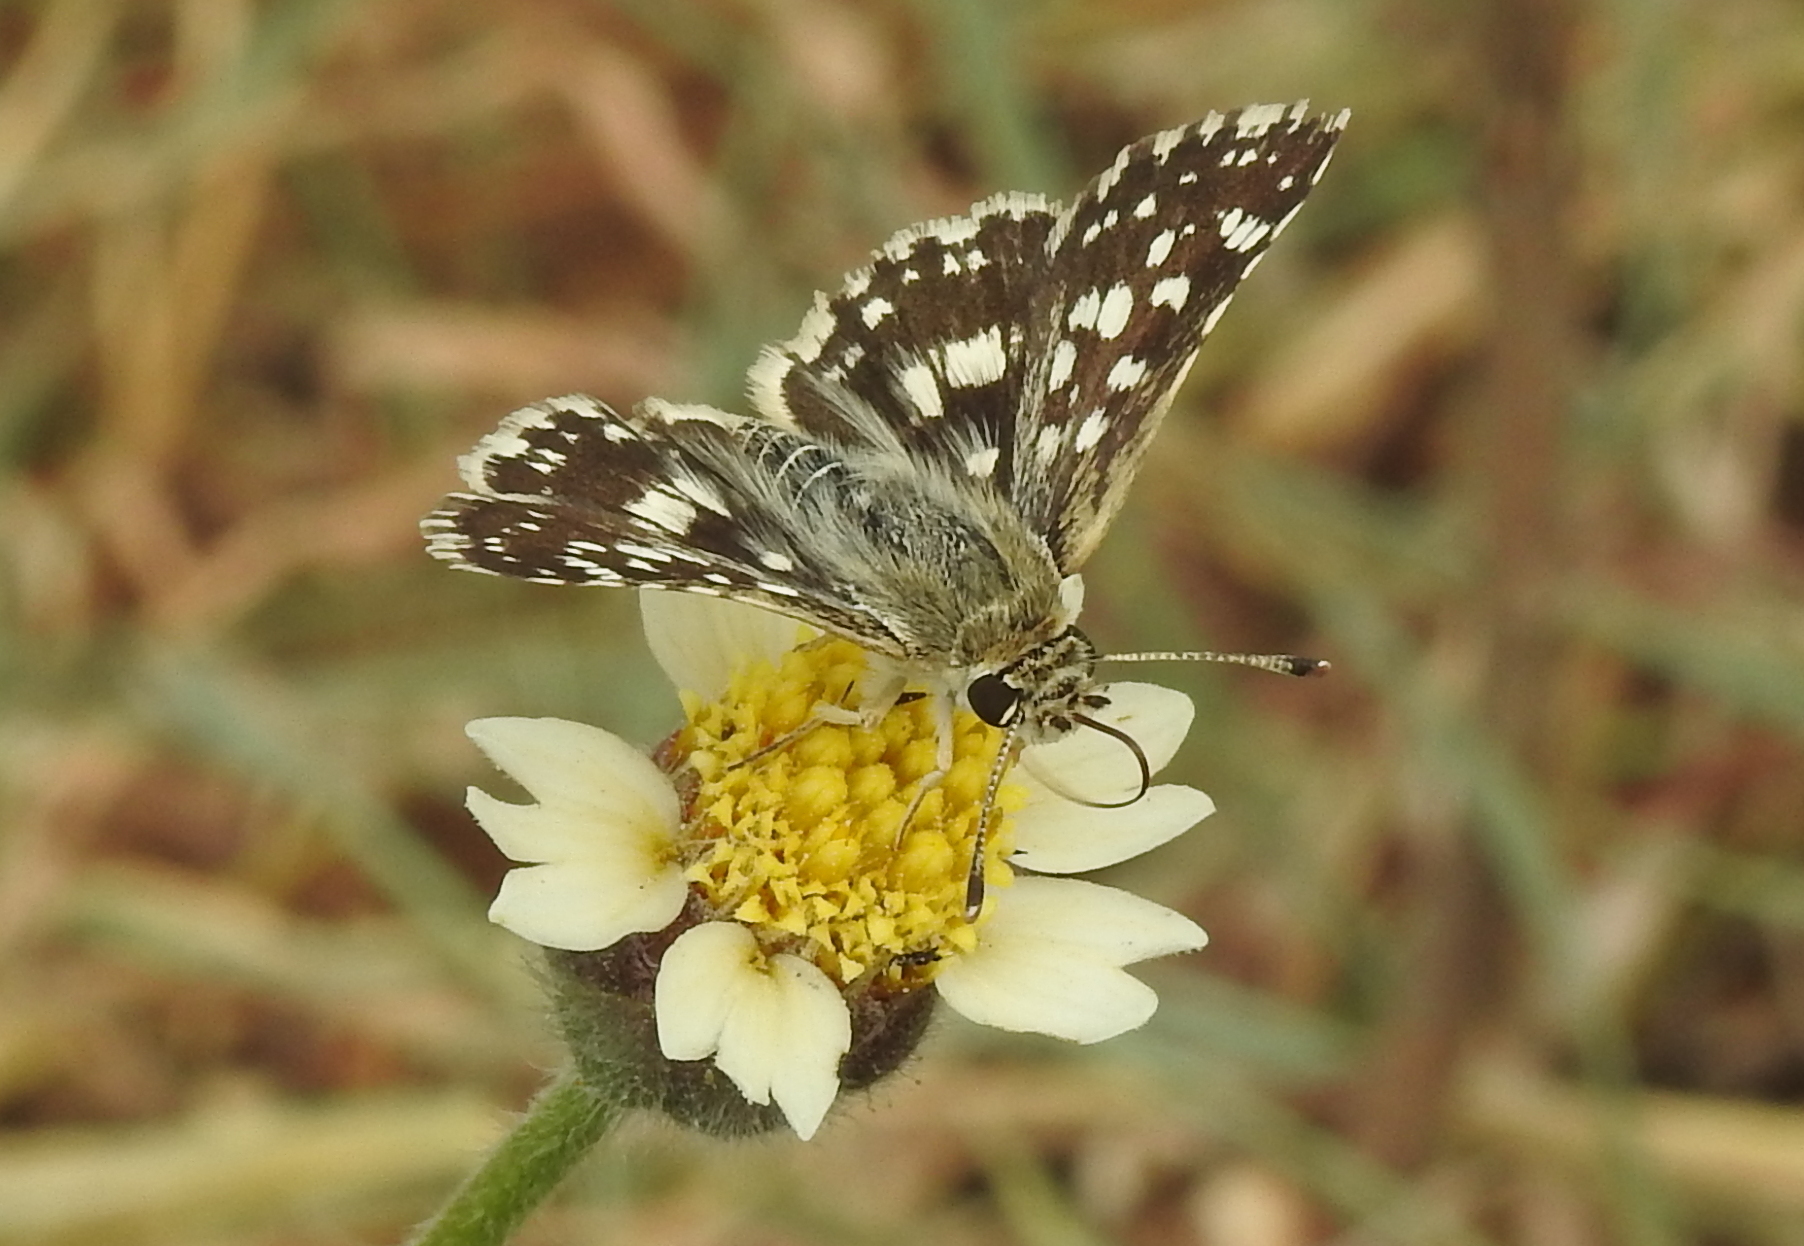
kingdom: Animalia
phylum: Arthropoda
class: Insecta
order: Lepidoptera
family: Hesperiidae
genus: Spialia
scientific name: Spialia galba
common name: Indian skipper
